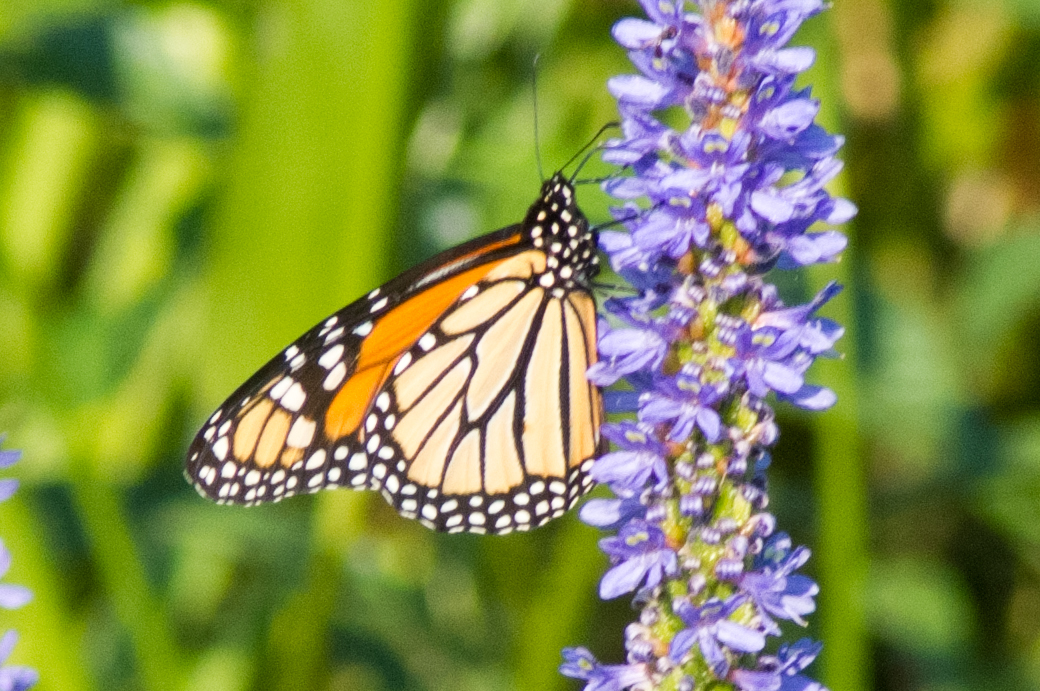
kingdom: Animalia
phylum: Arthropoda
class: Insecta
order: Lepidoptera
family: Nymphalidae
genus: Danaus
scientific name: Danaus plexippus
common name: Monarch
